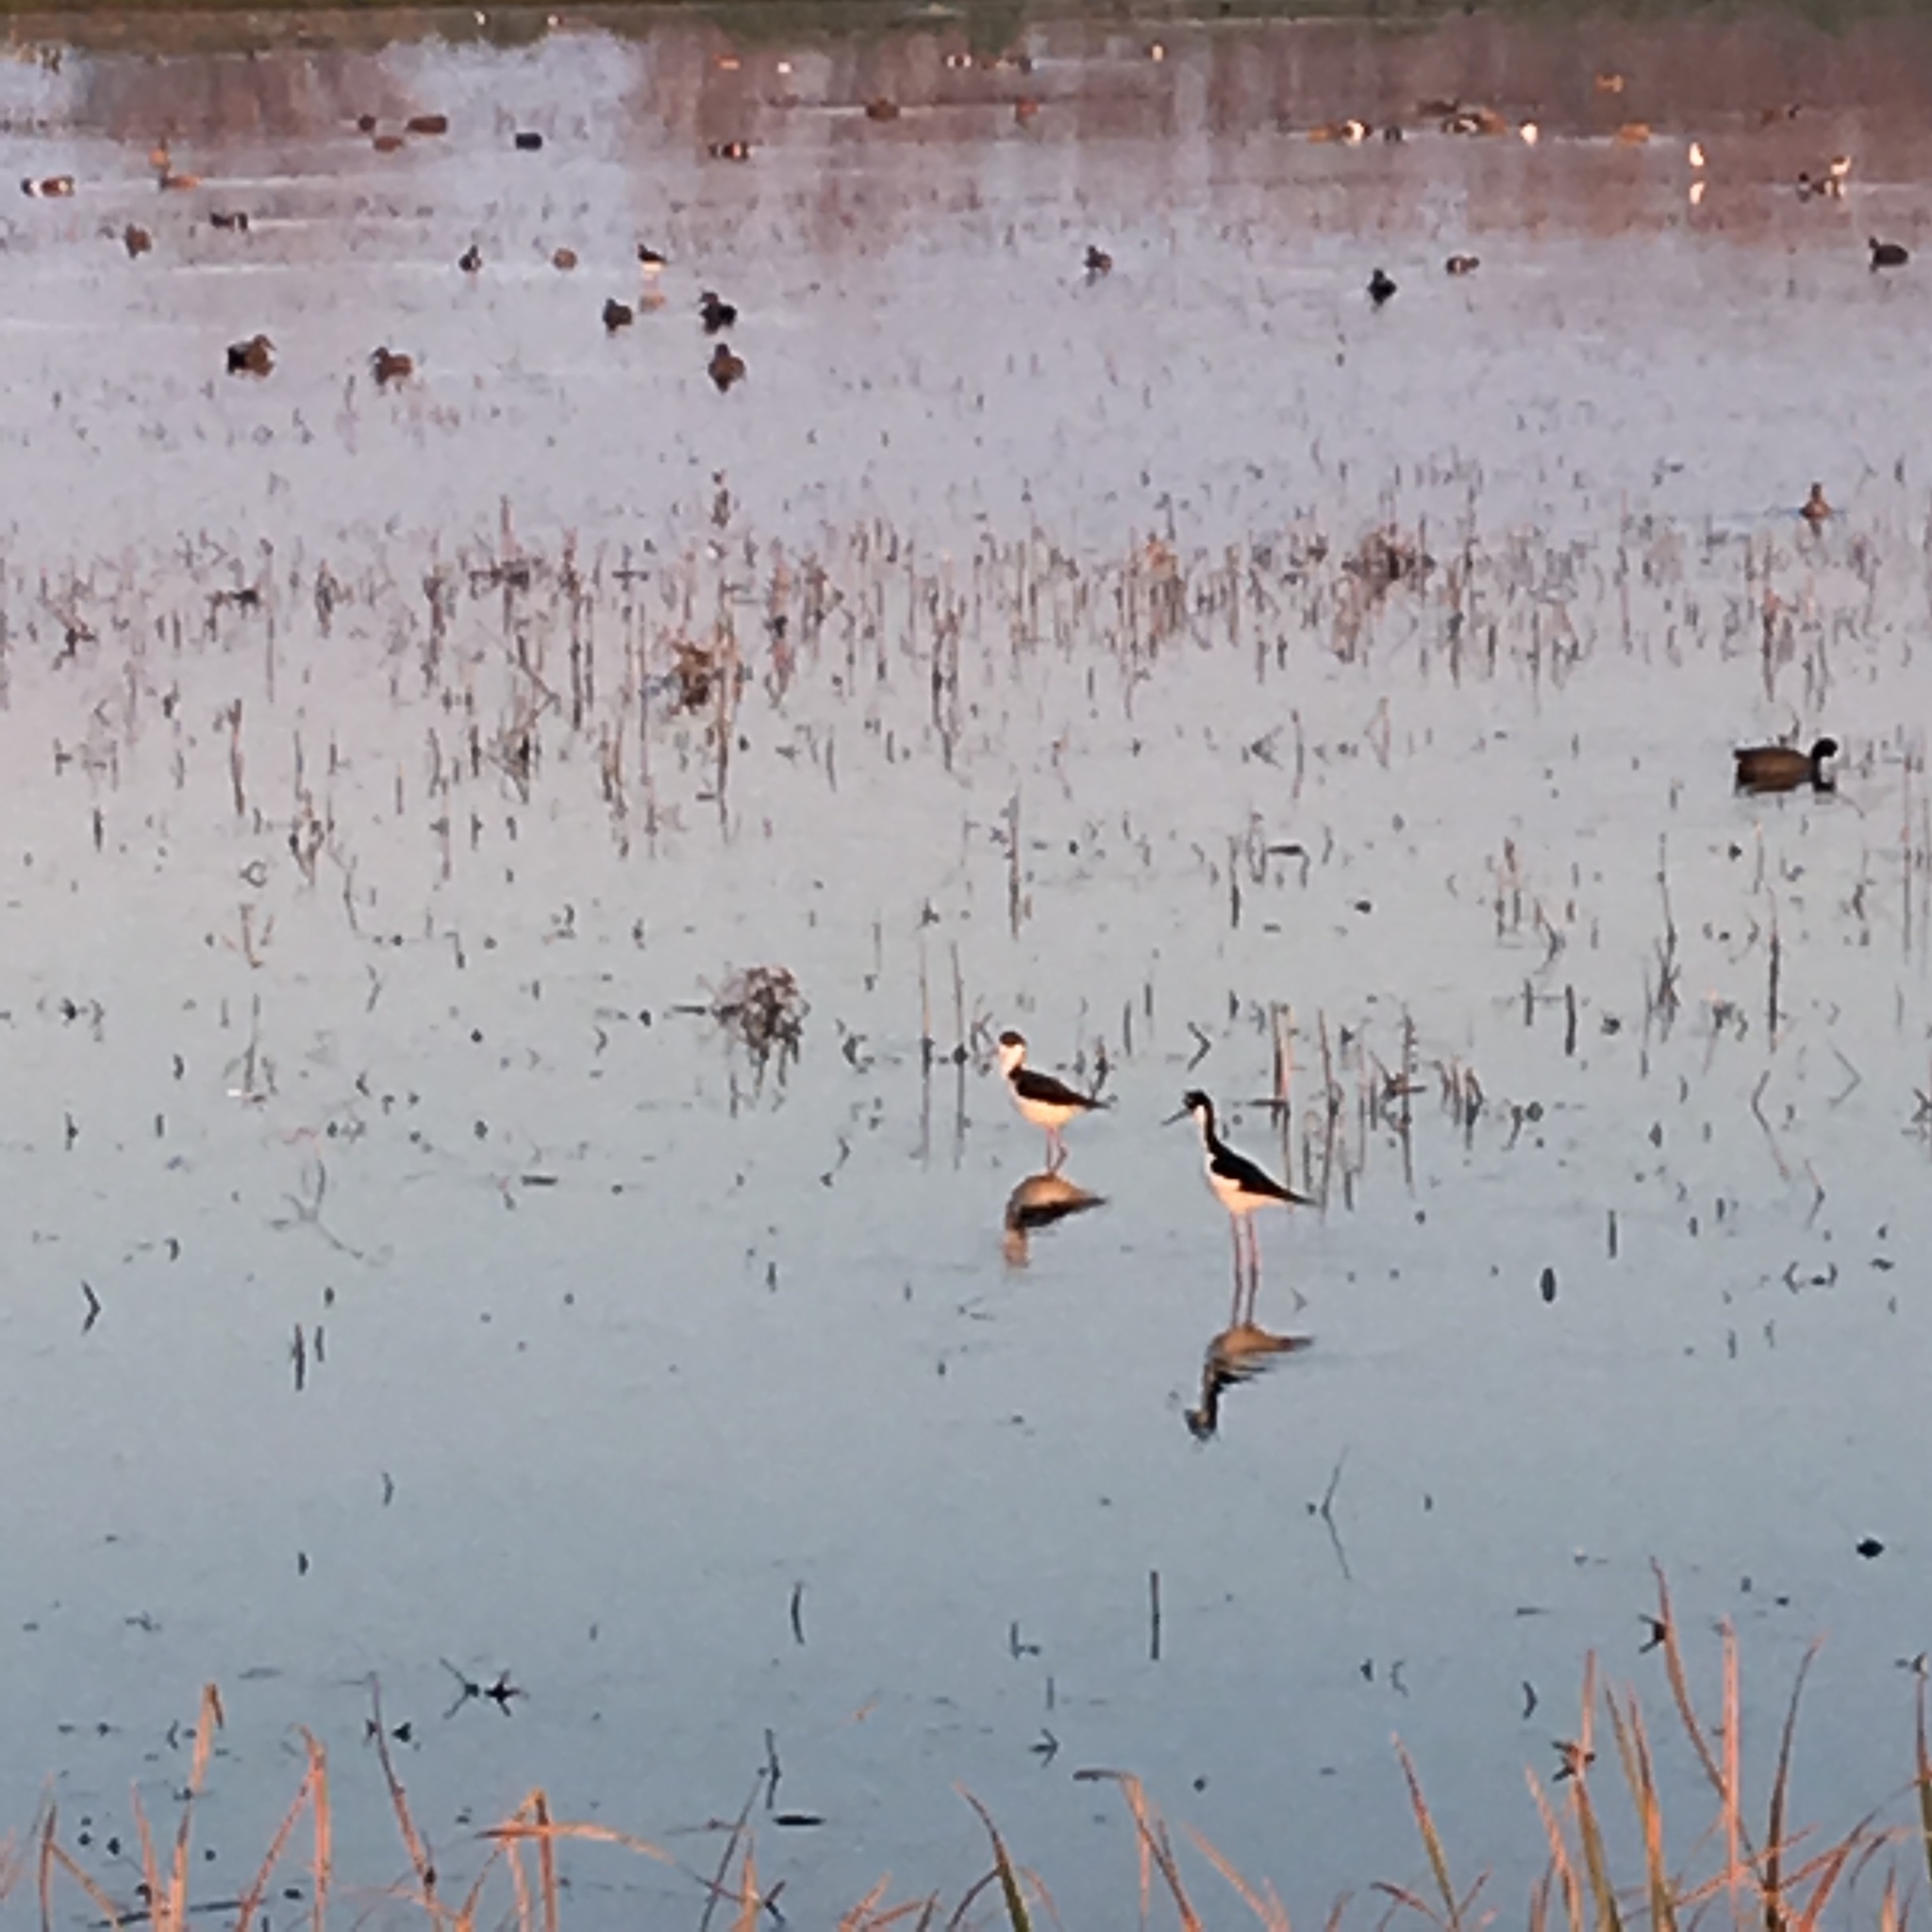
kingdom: Animalia
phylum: Chordata
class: Aves
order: Charadriiformes
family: Recurvirostridae
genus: Himantopus
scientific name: Himantopus mexicanus
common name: Black-necked stilt
